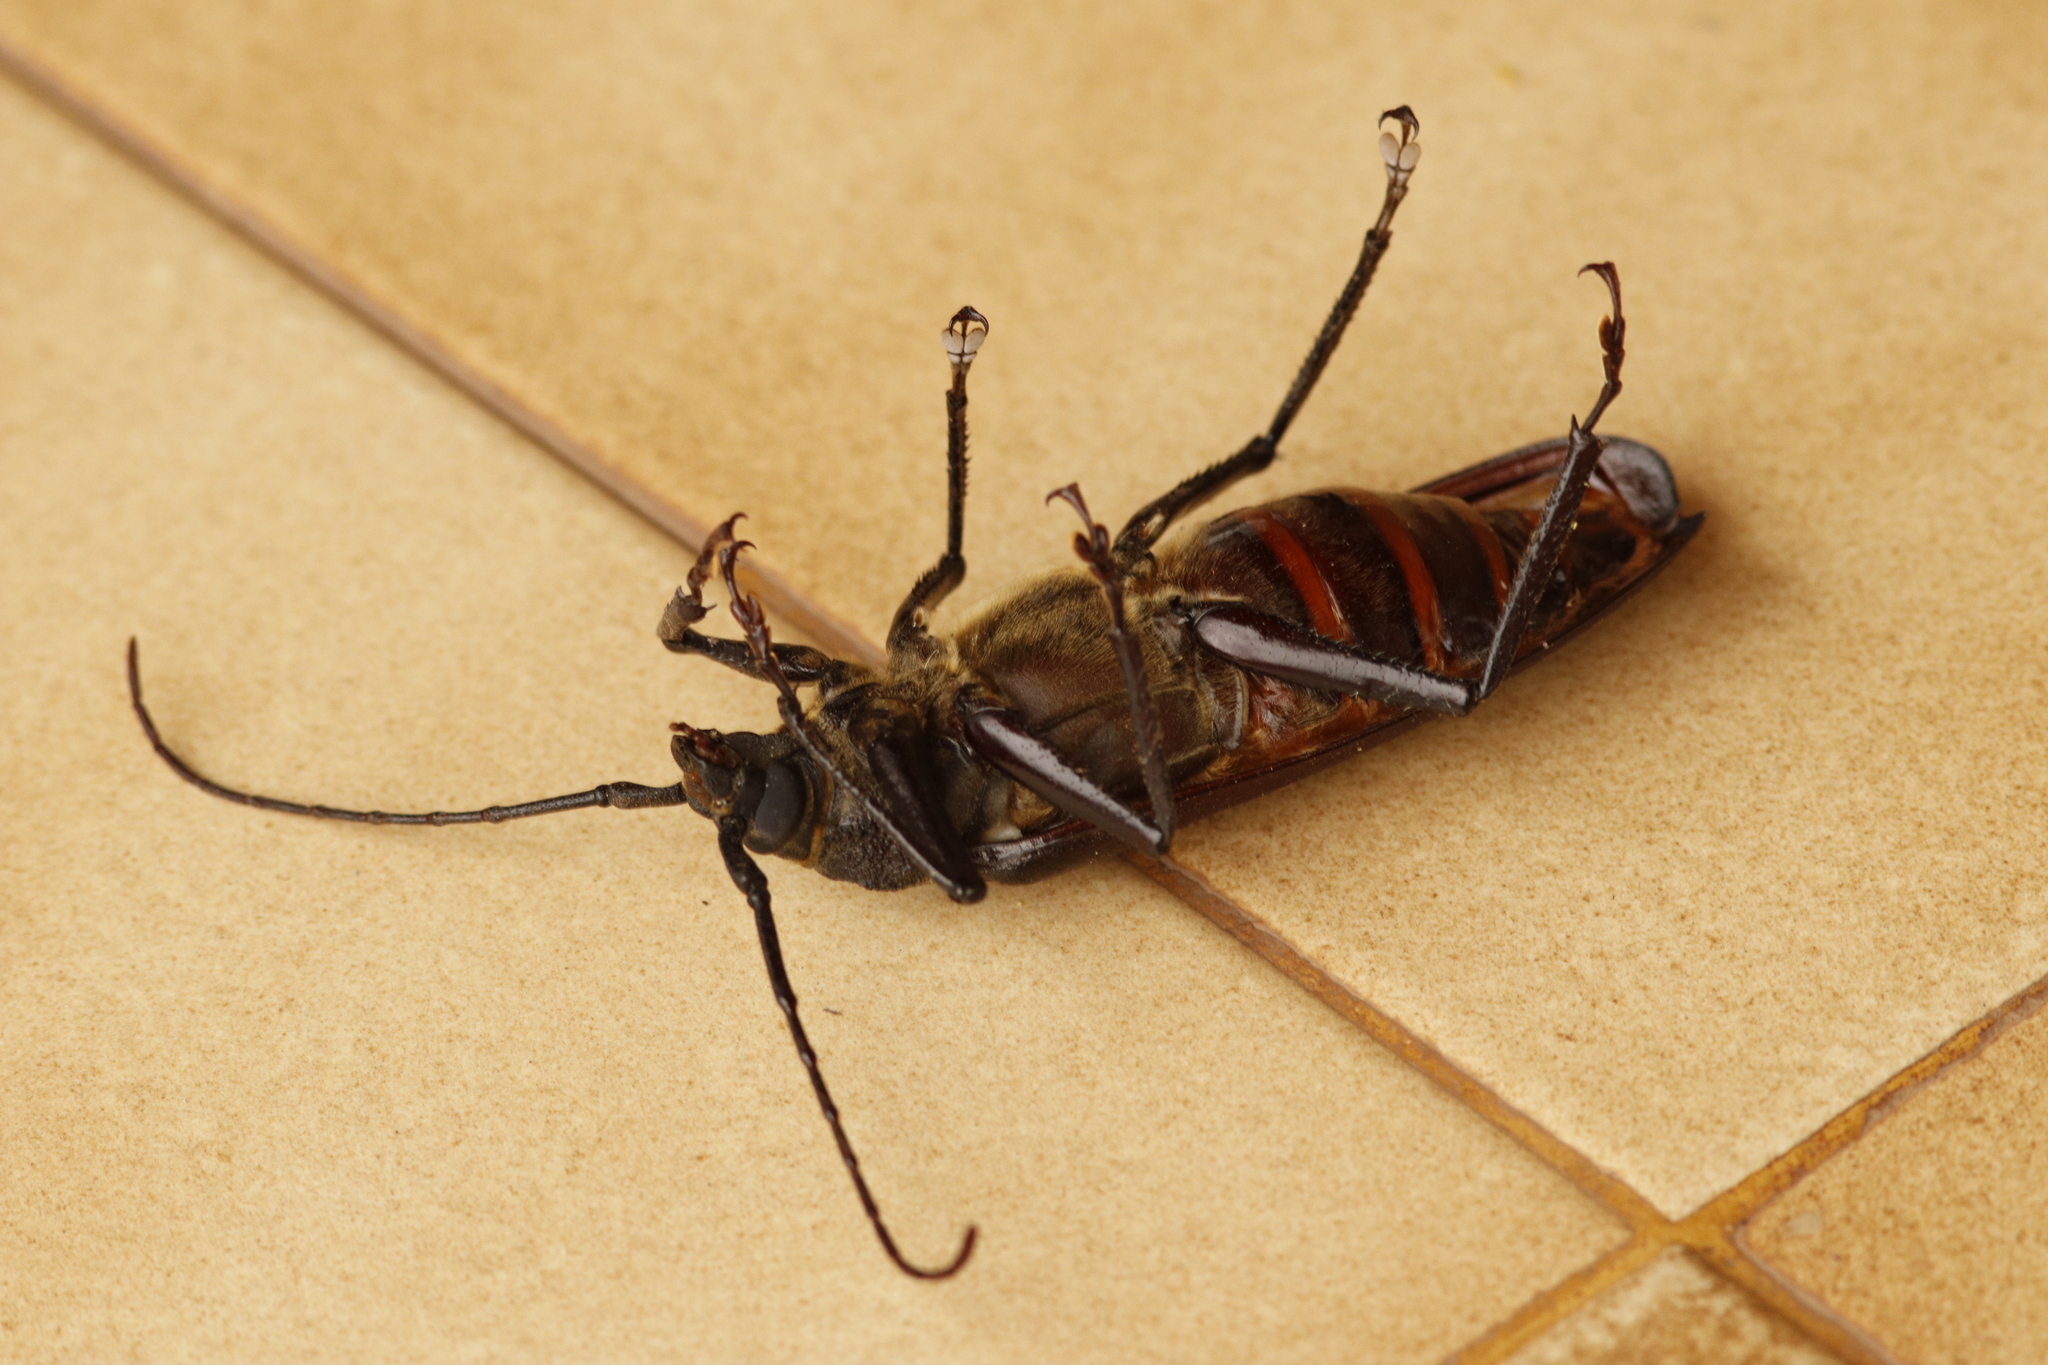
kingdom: Animalia
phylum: Arthropoda
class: Insecta
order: Coleoptera
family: Cerambycidae
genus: Macrotoma
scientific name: Macrotoma natala
